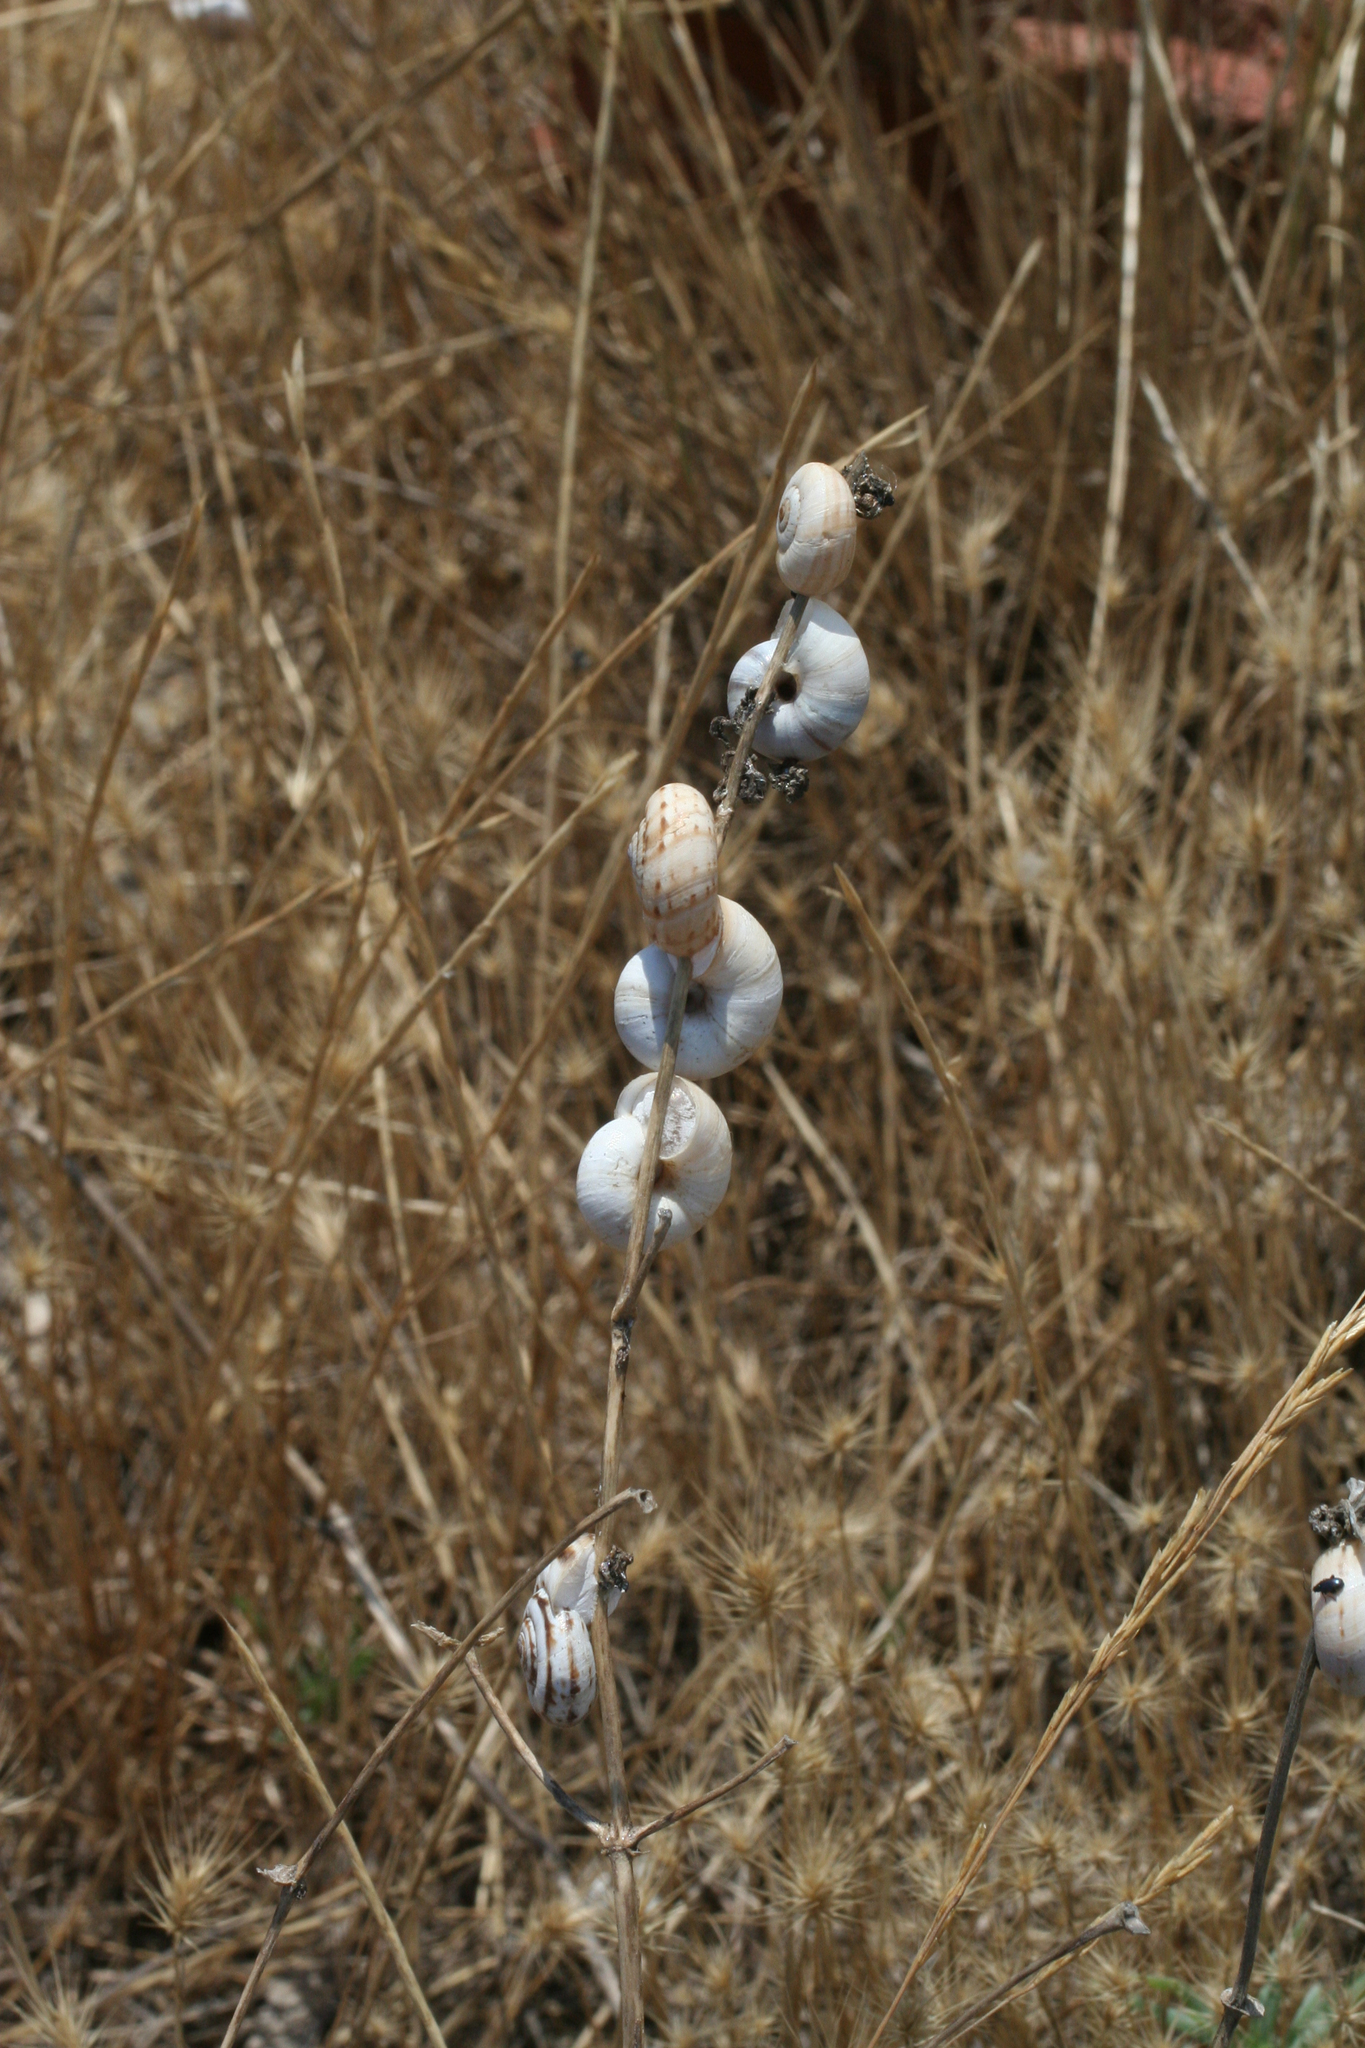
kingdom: Animalia
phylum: Mollusca
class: Gastropoda
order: Stylommatophora
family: Geomitridae
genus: Xeropicta
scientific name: Xeropicta derbentina
